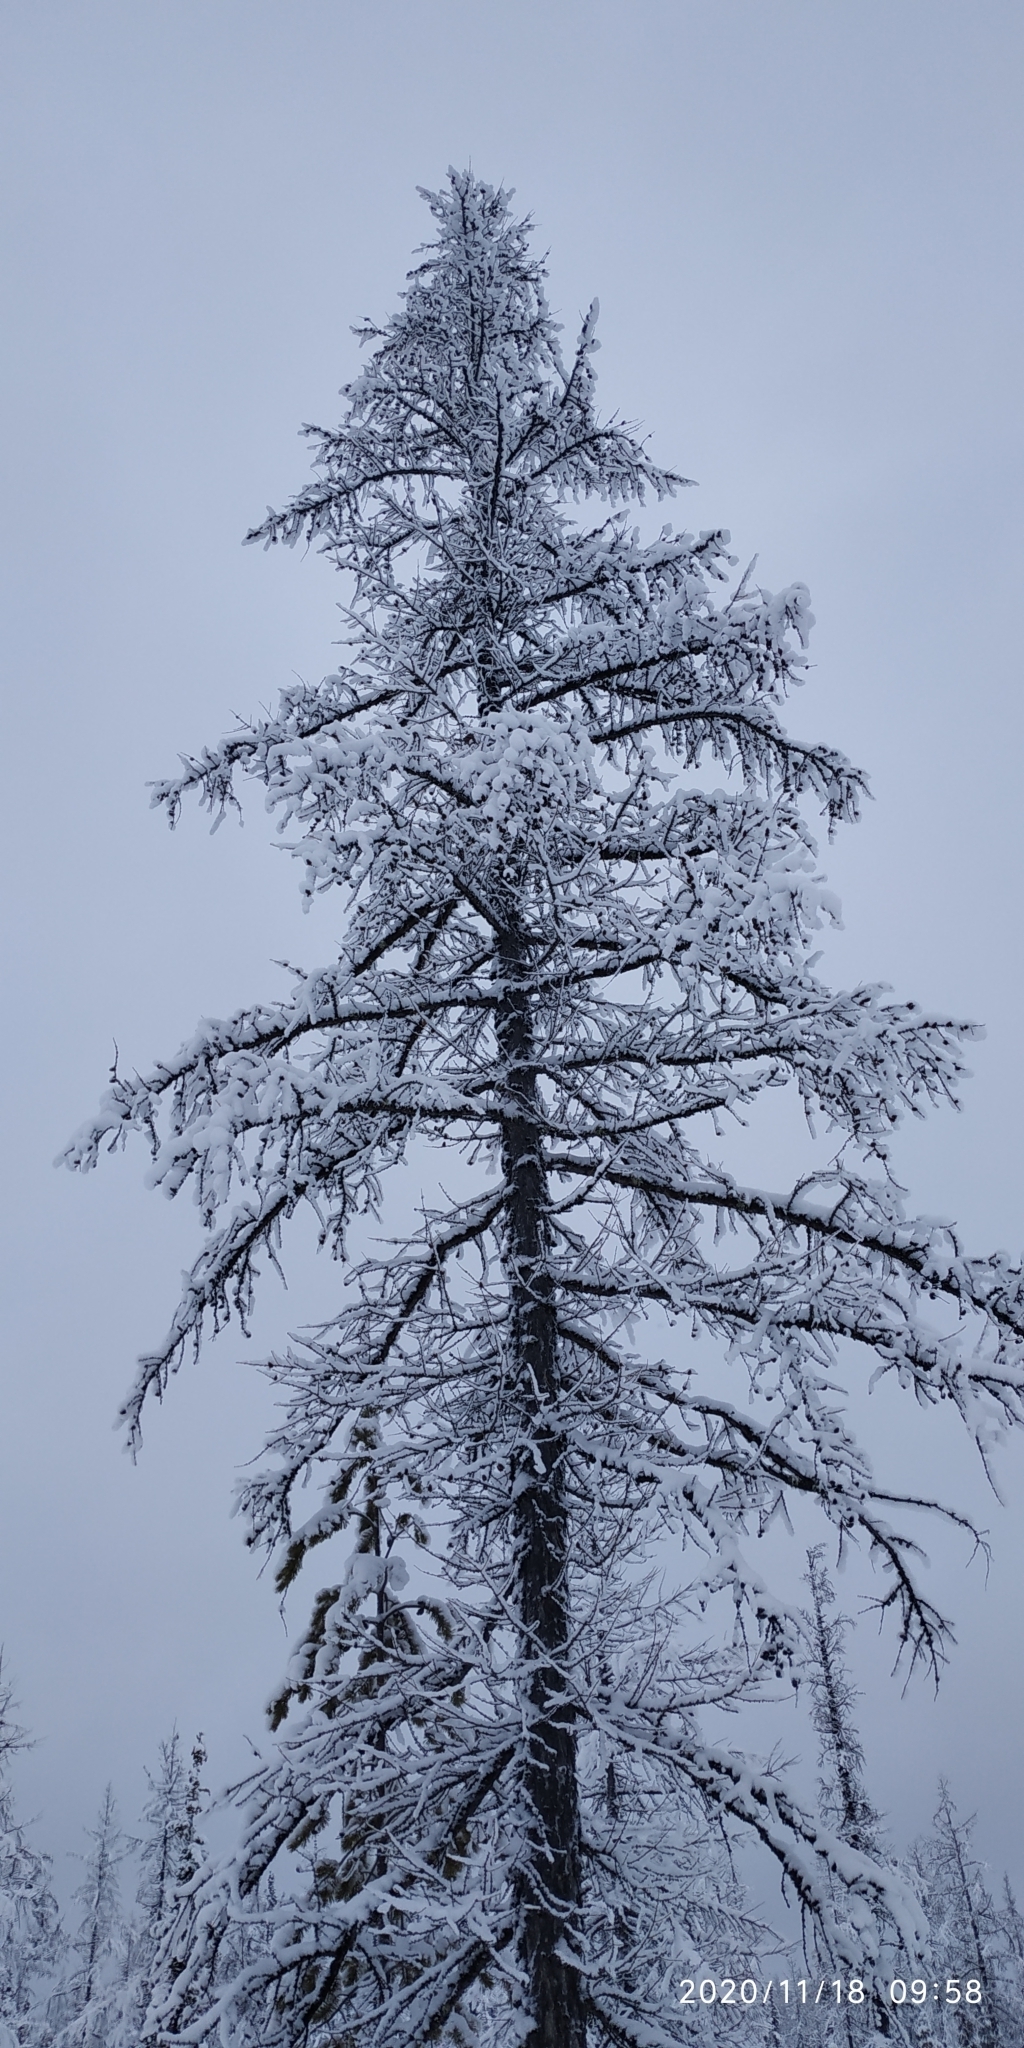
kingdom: Plantae
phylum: Tracheophyta
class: Pinopsida
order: Pinales
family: Pinaceae
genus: Larix
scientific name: Larix sibirica
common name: Siberian larch
